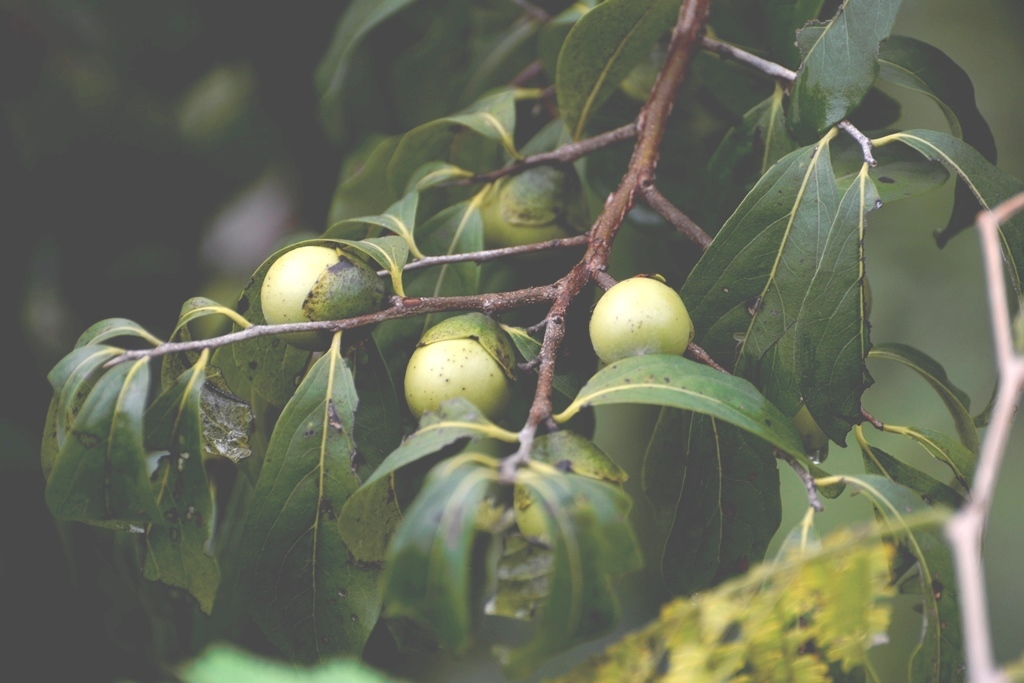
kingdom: Plantae
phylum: Tracheophyta
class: Magnoliopsida
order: Ericales
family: Ebenaceae
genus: Diospyros
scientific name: Diospyros salicifolia
